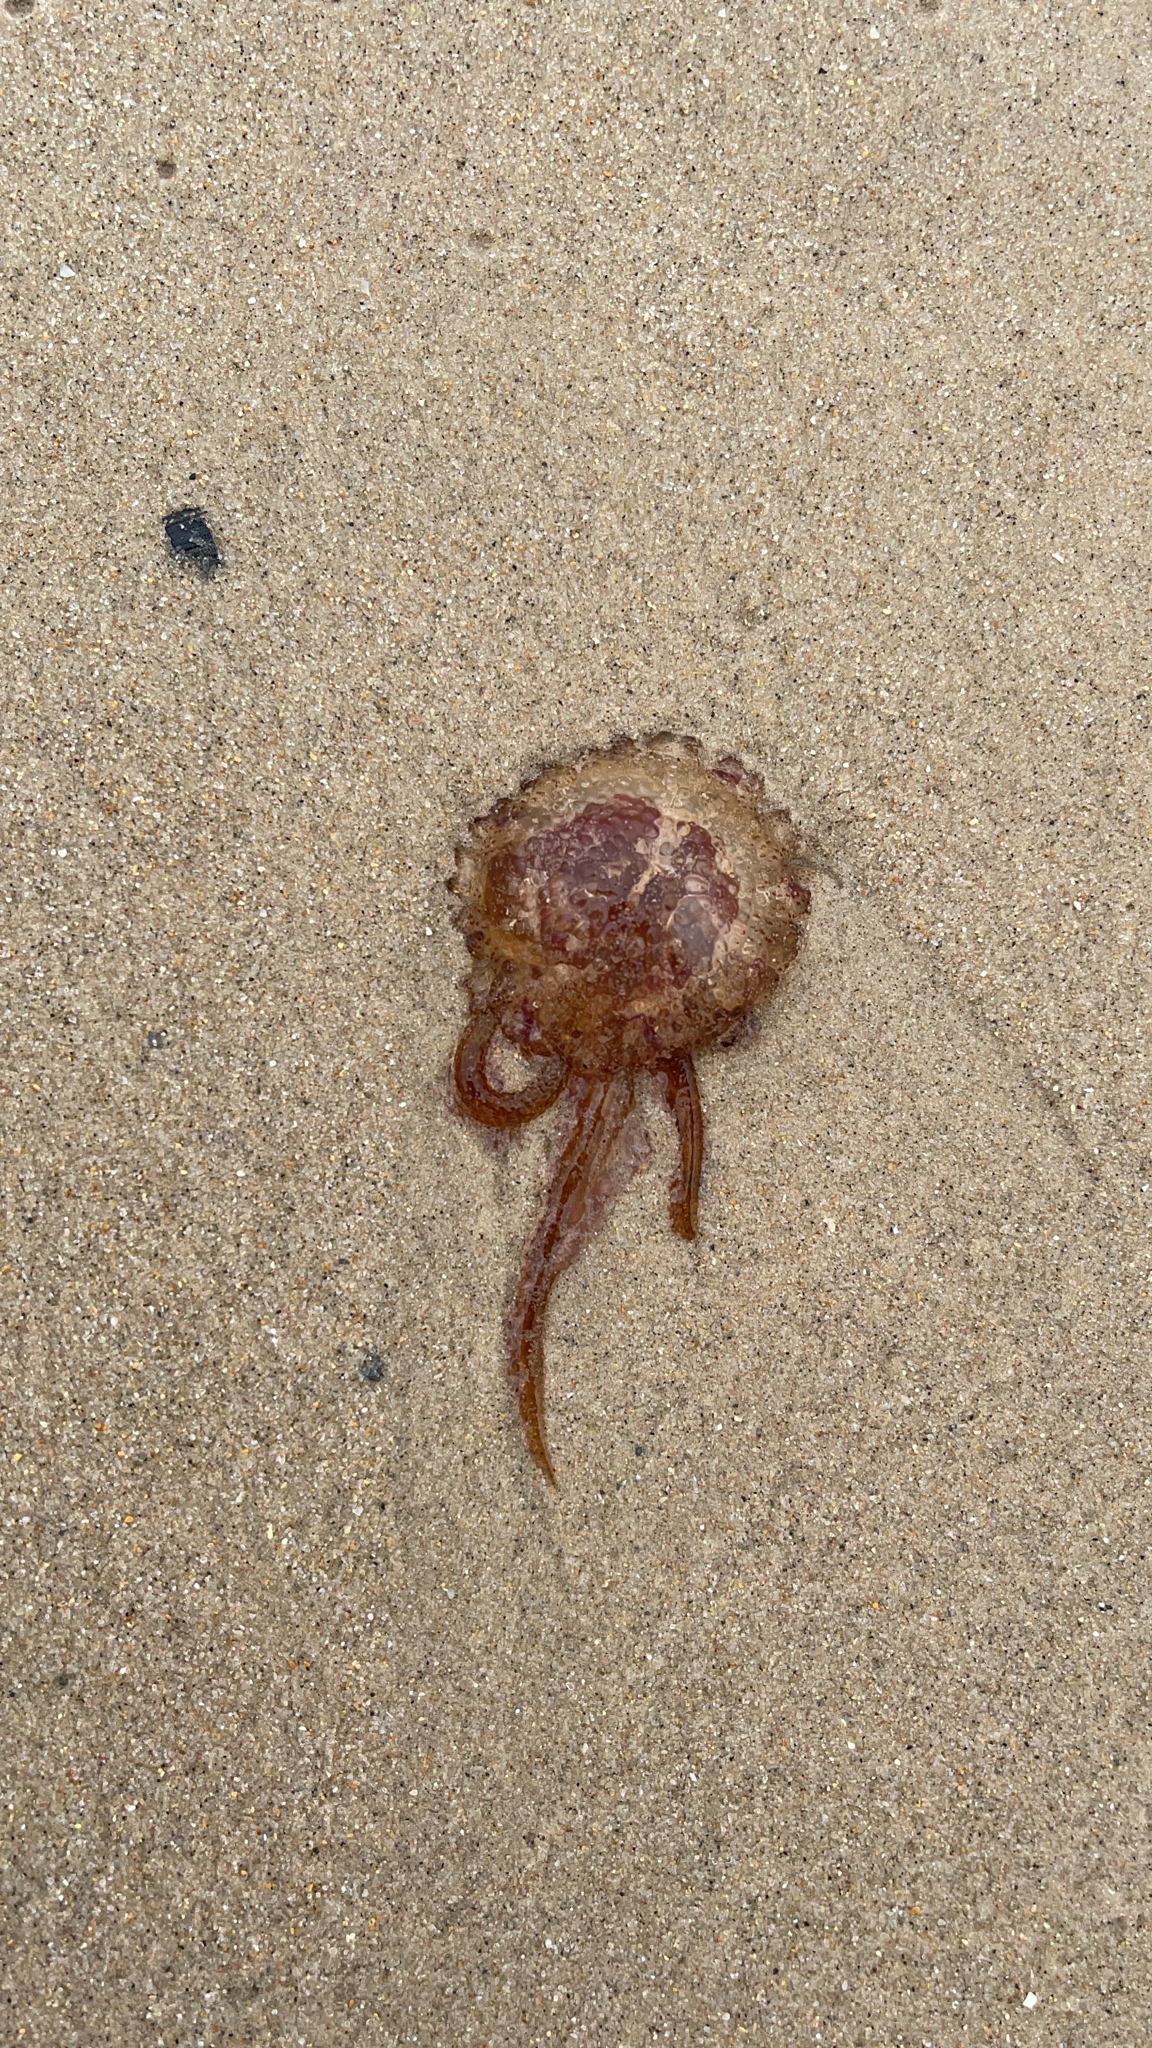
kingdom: Animalia
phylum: Cnidaria
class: Scyphozoa
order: Semaeostomeae
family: Pelagiidae
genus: Pelagia
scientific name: Pelagia noctiluca
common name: Mauve stinger
